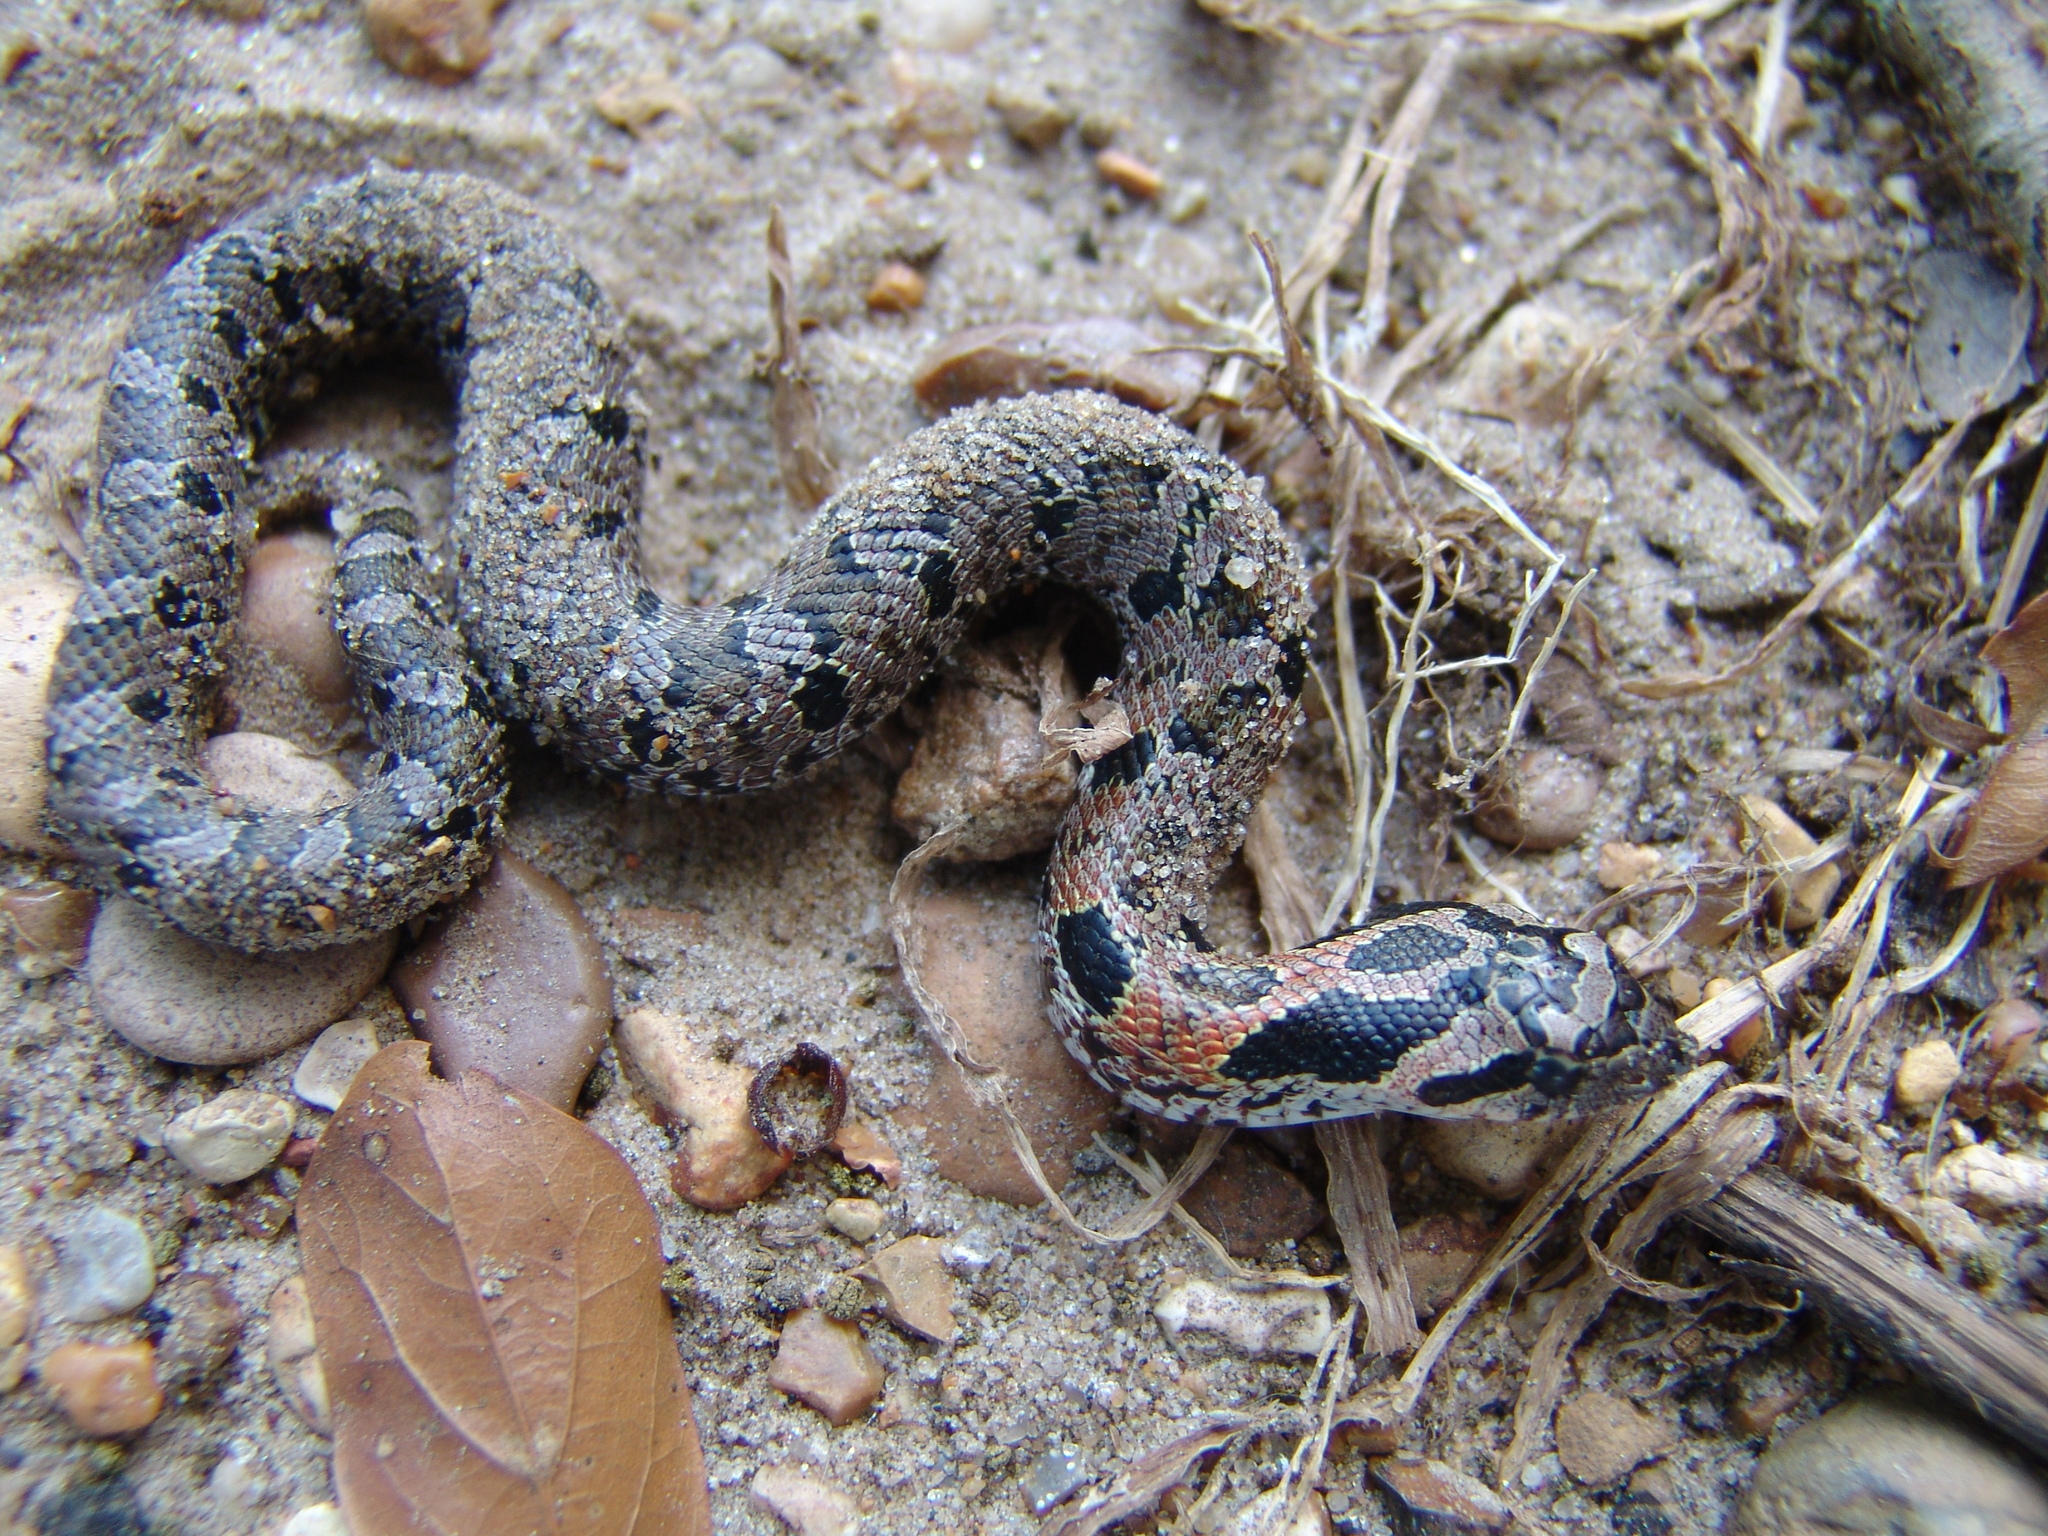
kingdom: Animalia
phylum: Chordata
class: Squamata
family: Colubridae
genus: Heterodon
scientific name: Heterodon platirhinos
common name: Eastern hognose snake
